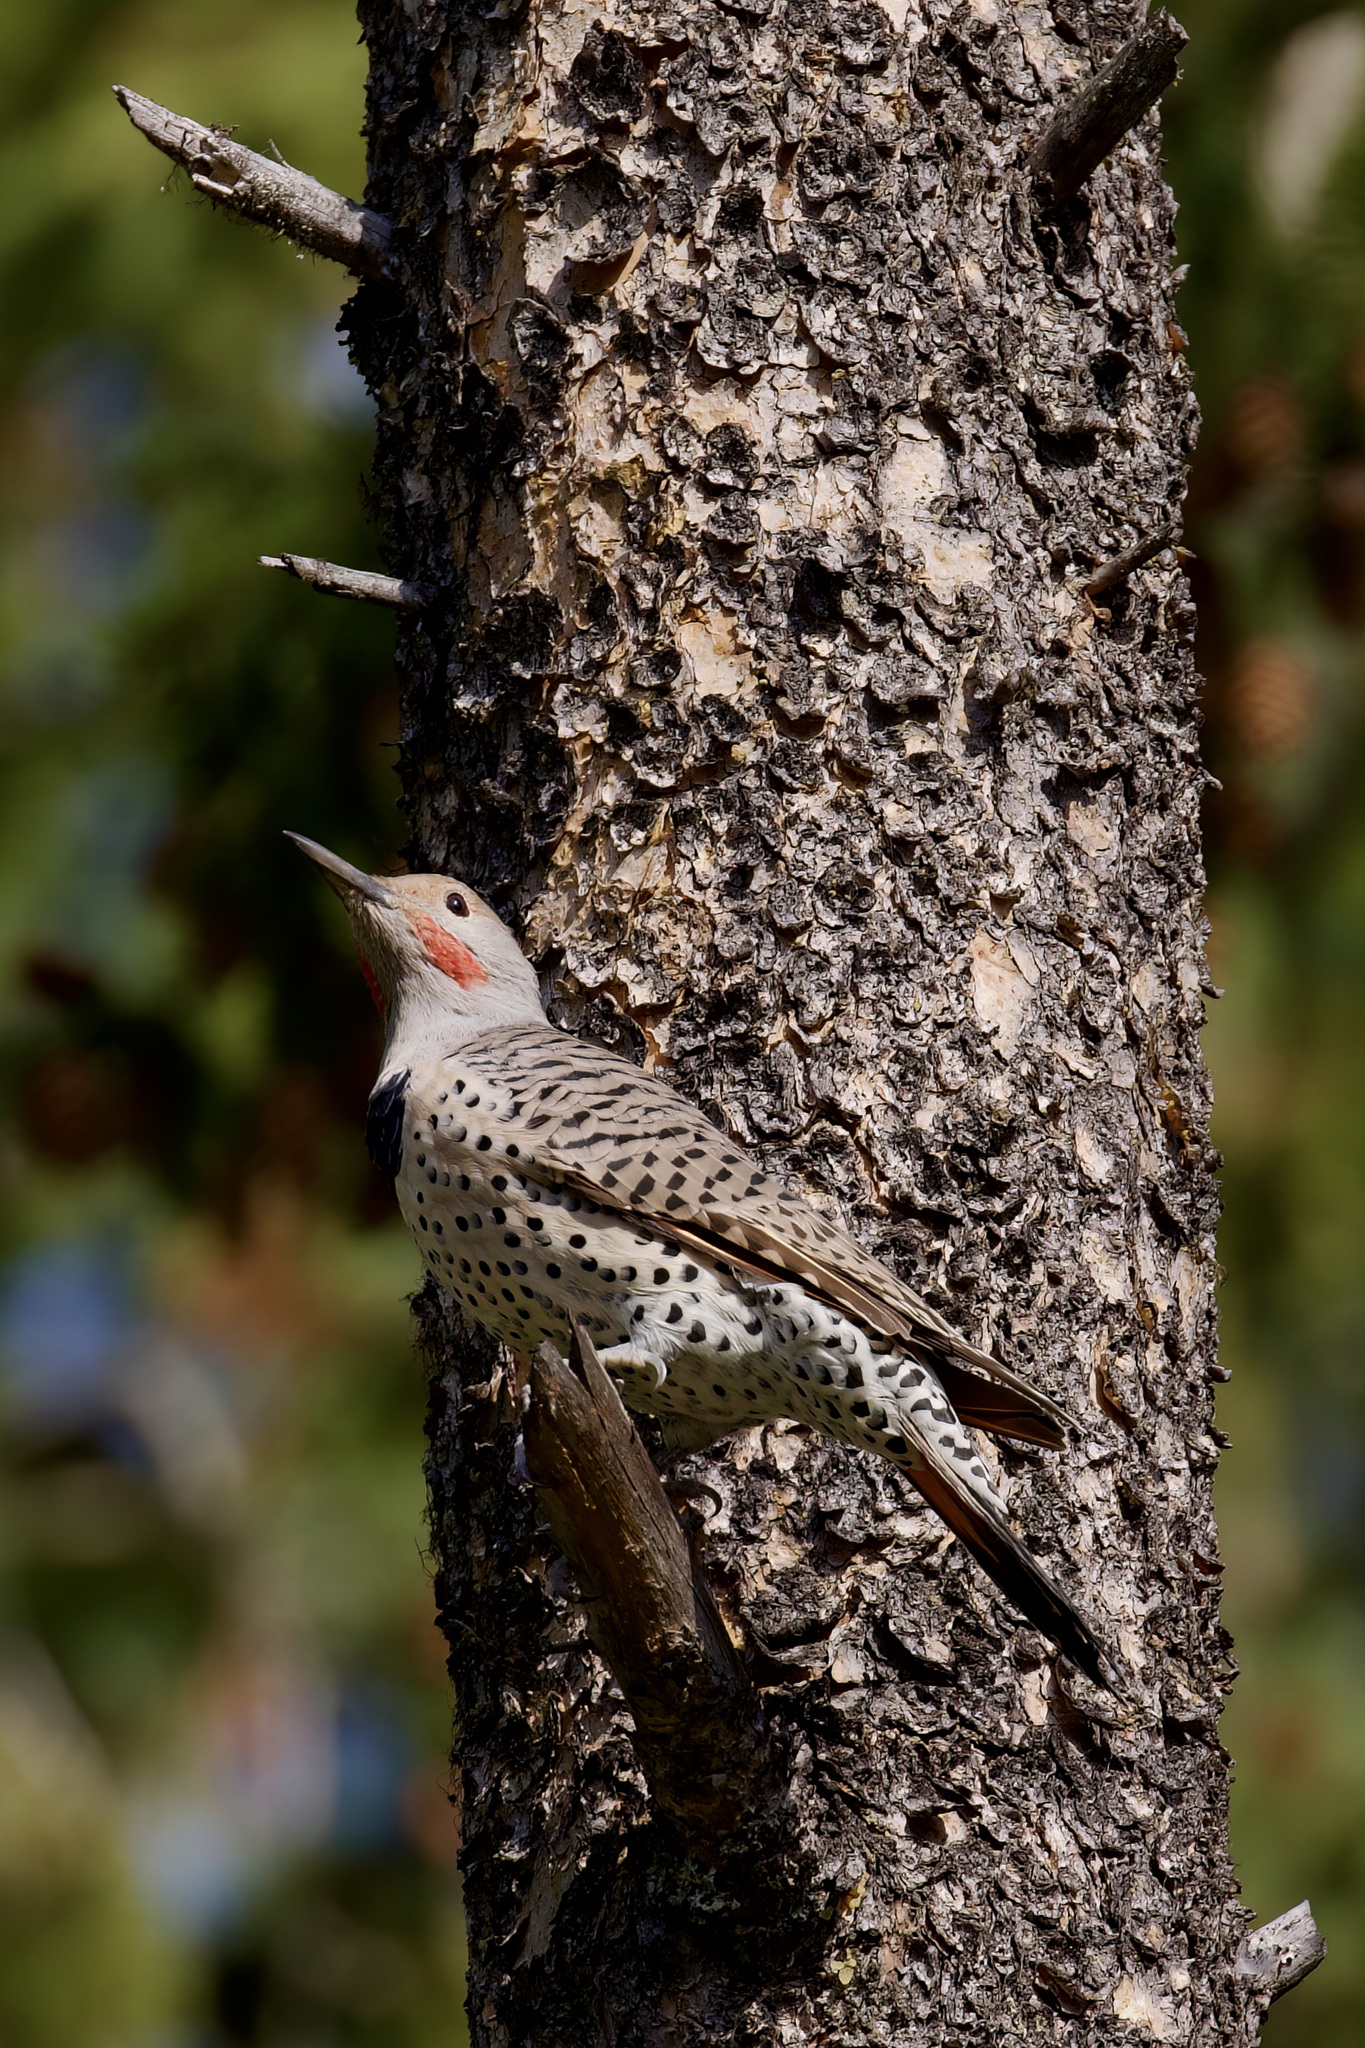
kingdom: Animalia
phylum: Chordata
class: Aves
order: Piciformes
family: Picidae
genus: Colaptes
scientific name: Colaptes auratus
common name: Northern flicker
